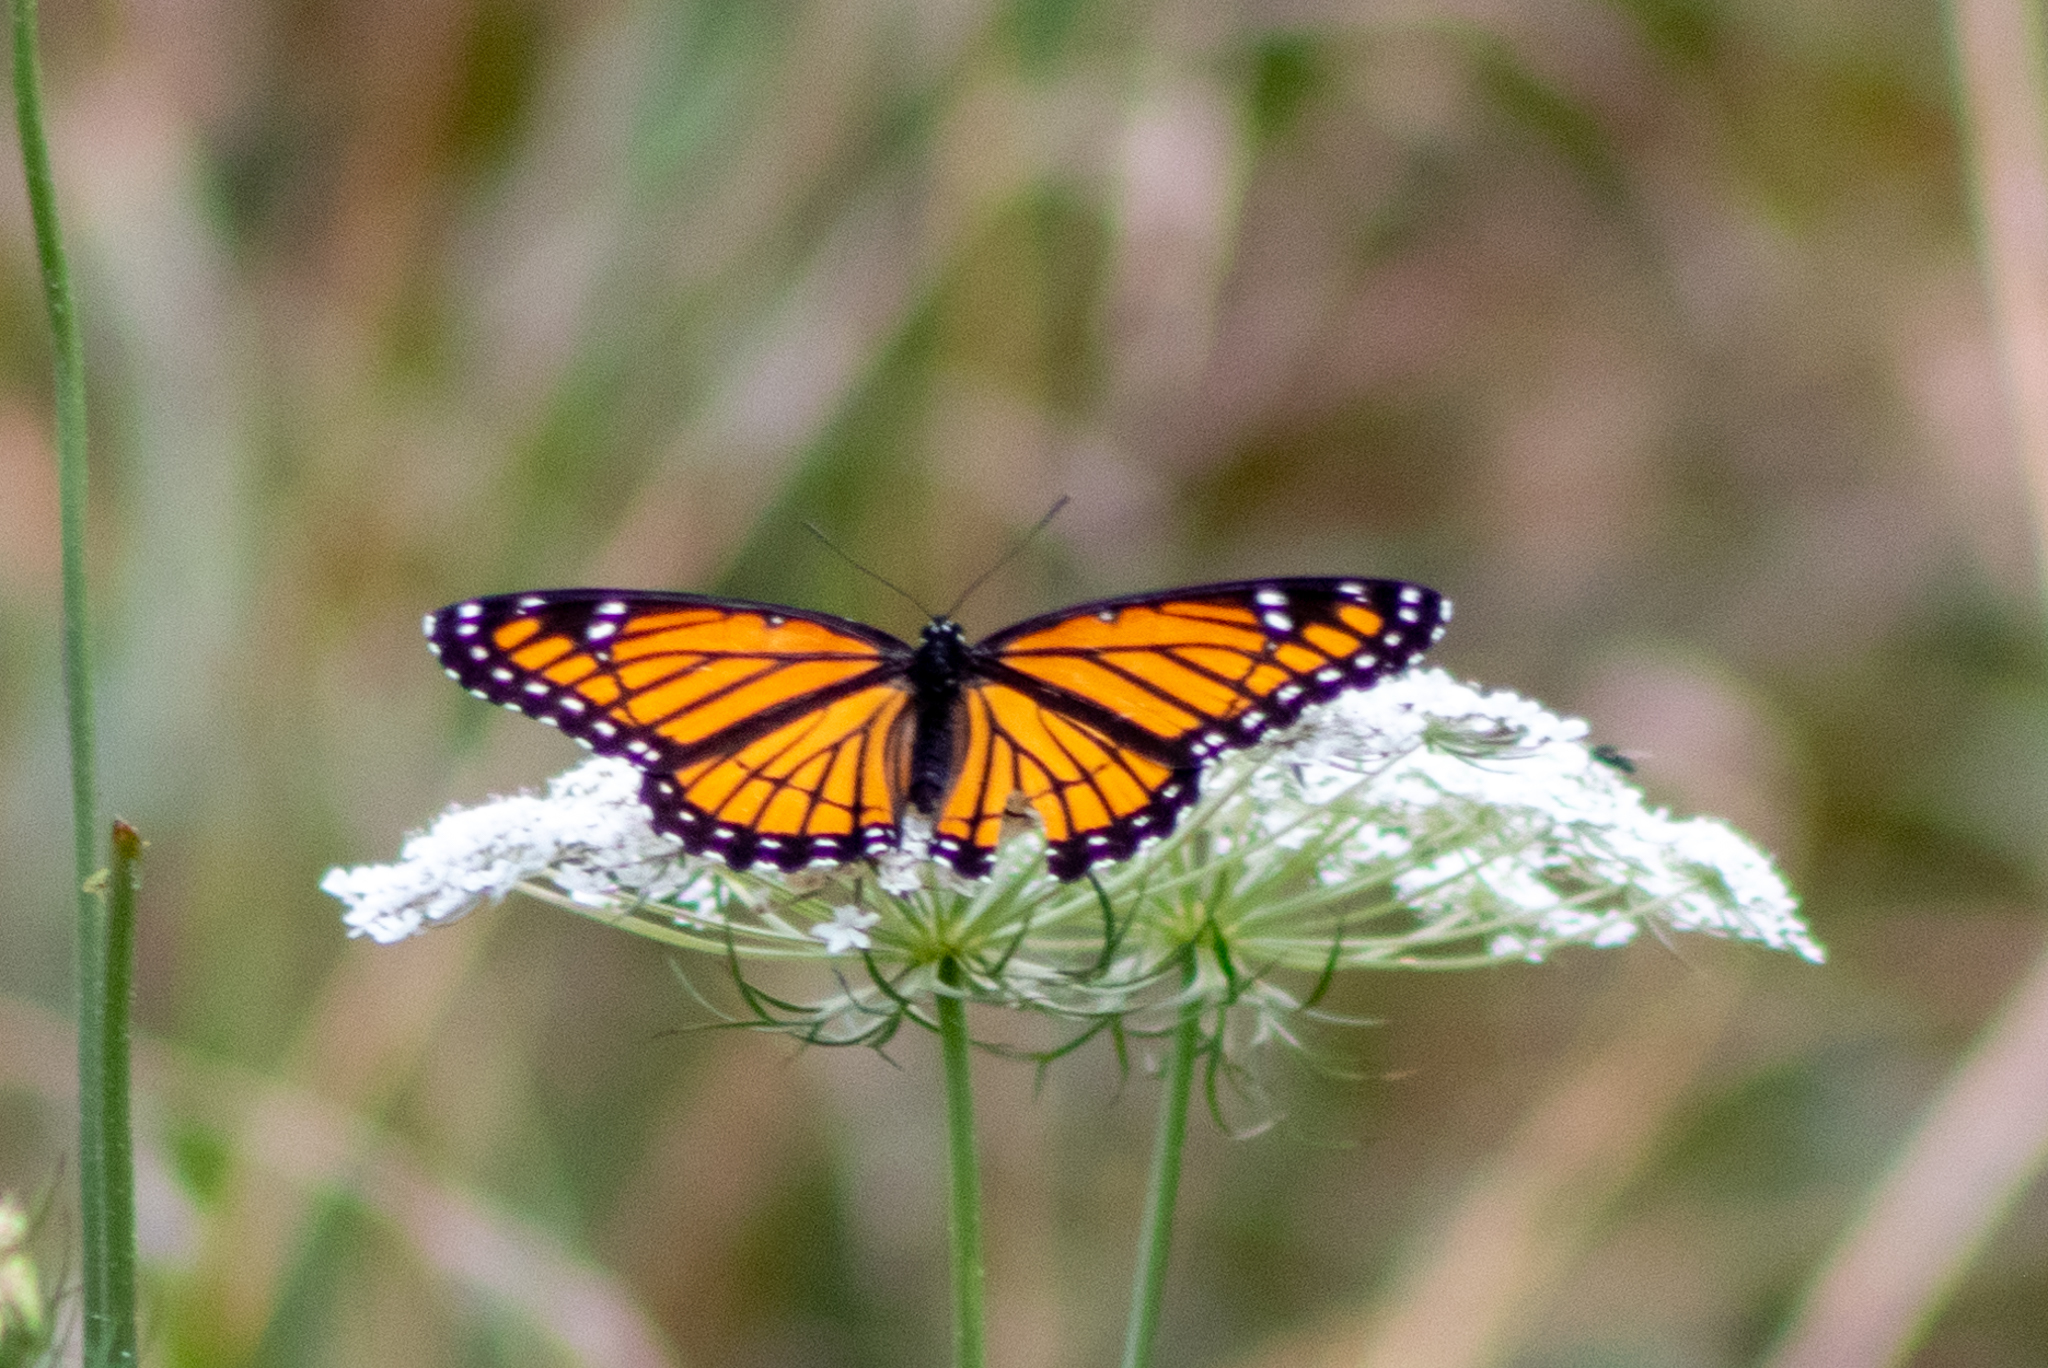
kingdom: Animalia
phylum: Arthropoda
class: Insecta
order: Lepidoptera
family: Nymphalidae
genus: Limenitis
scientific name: Limenitis archippus
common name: Viceroy
